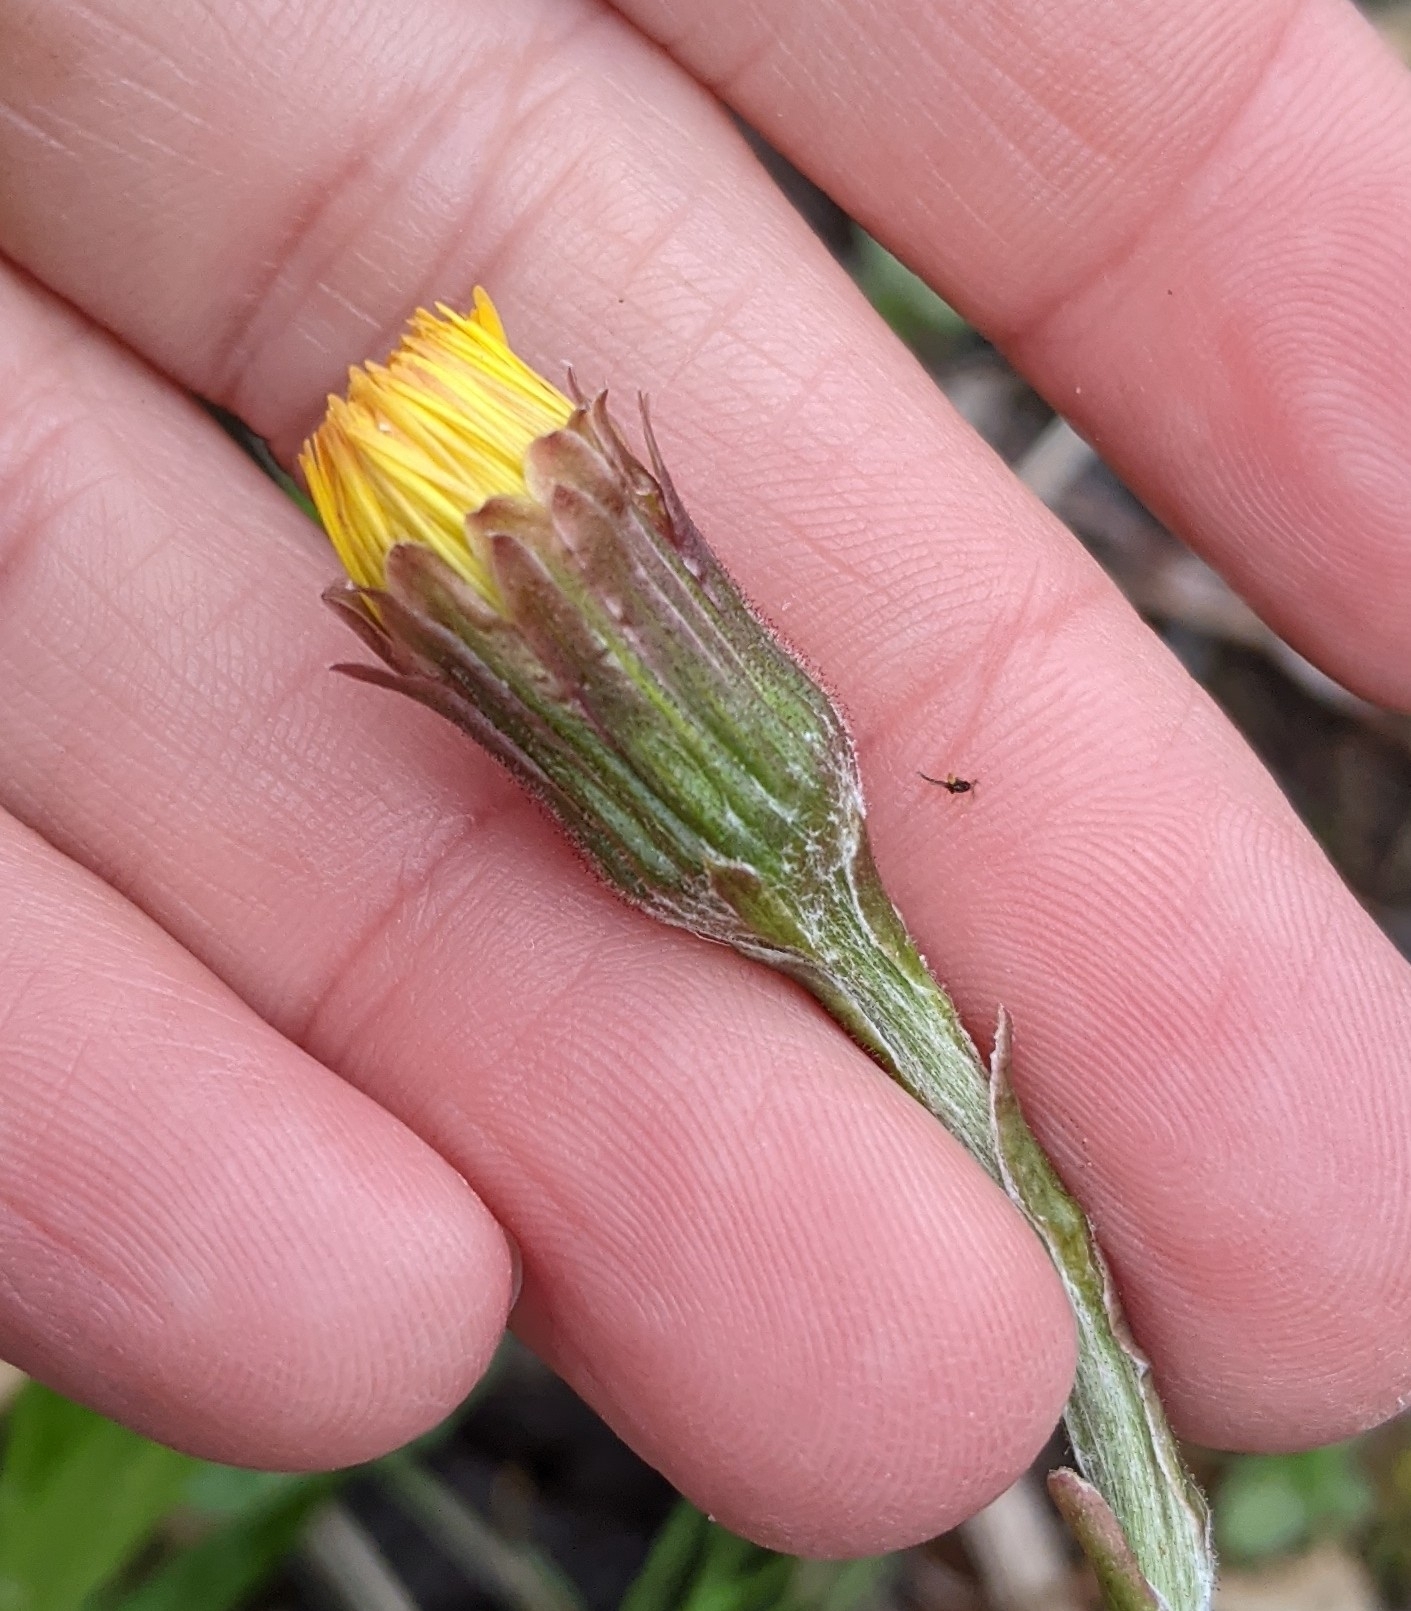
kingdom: Plantae
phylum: Tracheophyta
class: Magnoliopsida
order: Asterales
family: Asteraceae
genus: Tussilago
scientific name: Tussilago farfara
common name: Coltsfoot
